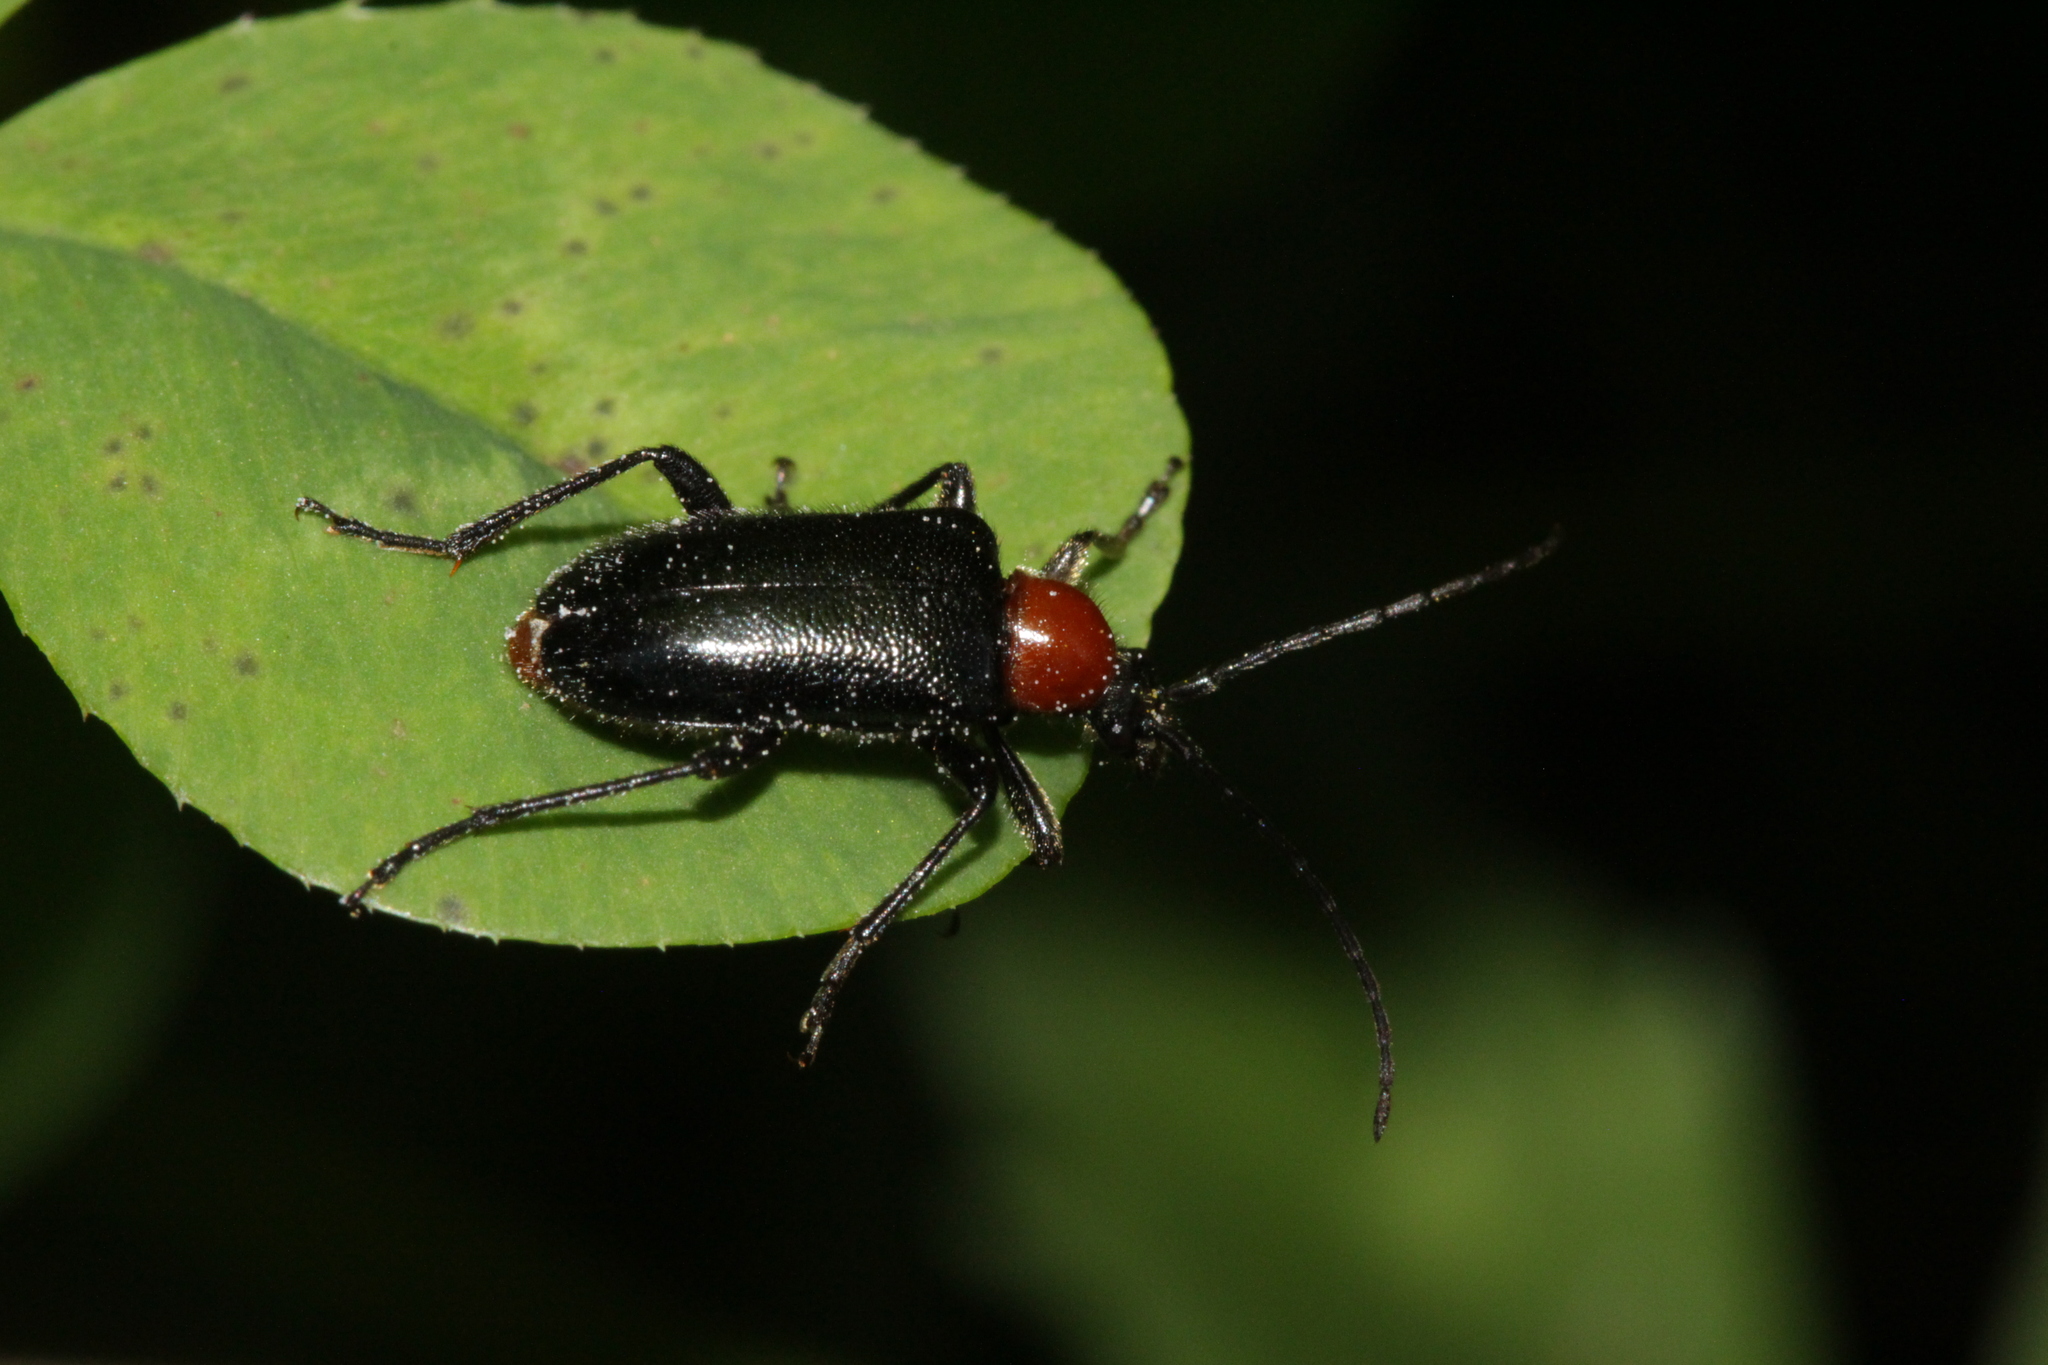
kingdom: Animalia
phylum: Arthropoda
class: Insecta
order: Coleoptera
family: Cerambycidae
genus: Dinoptera
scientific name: Dinoptera collaris
